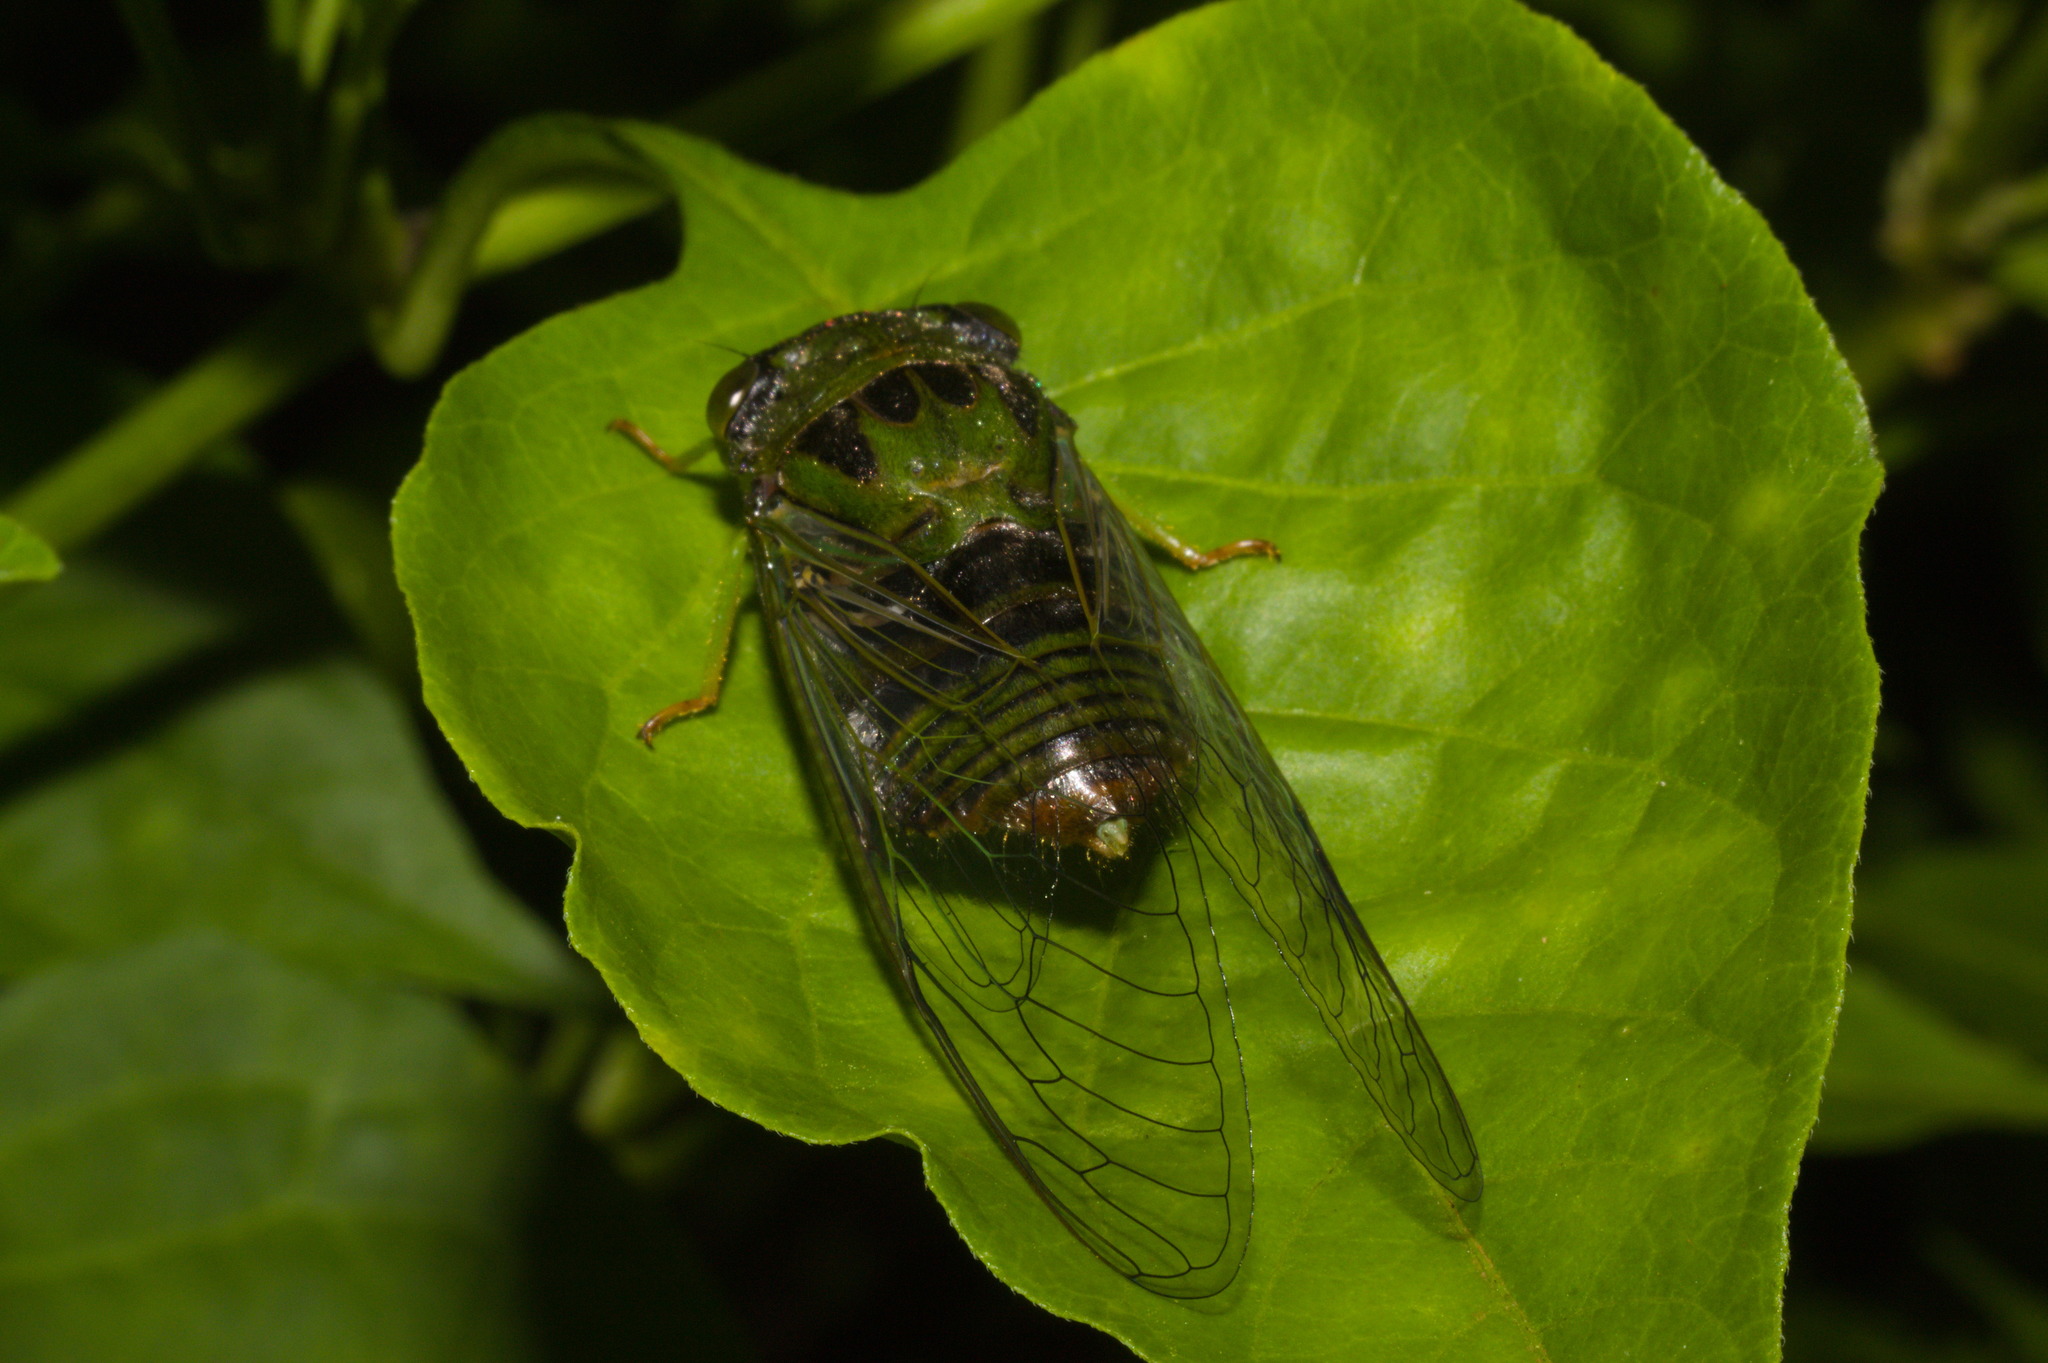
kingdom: Animalia
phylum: Arthropoda
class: Insecta
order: Hemiptera
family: Cicadidae
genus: Acanthoventris
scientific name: Acanthoventris drewseni
